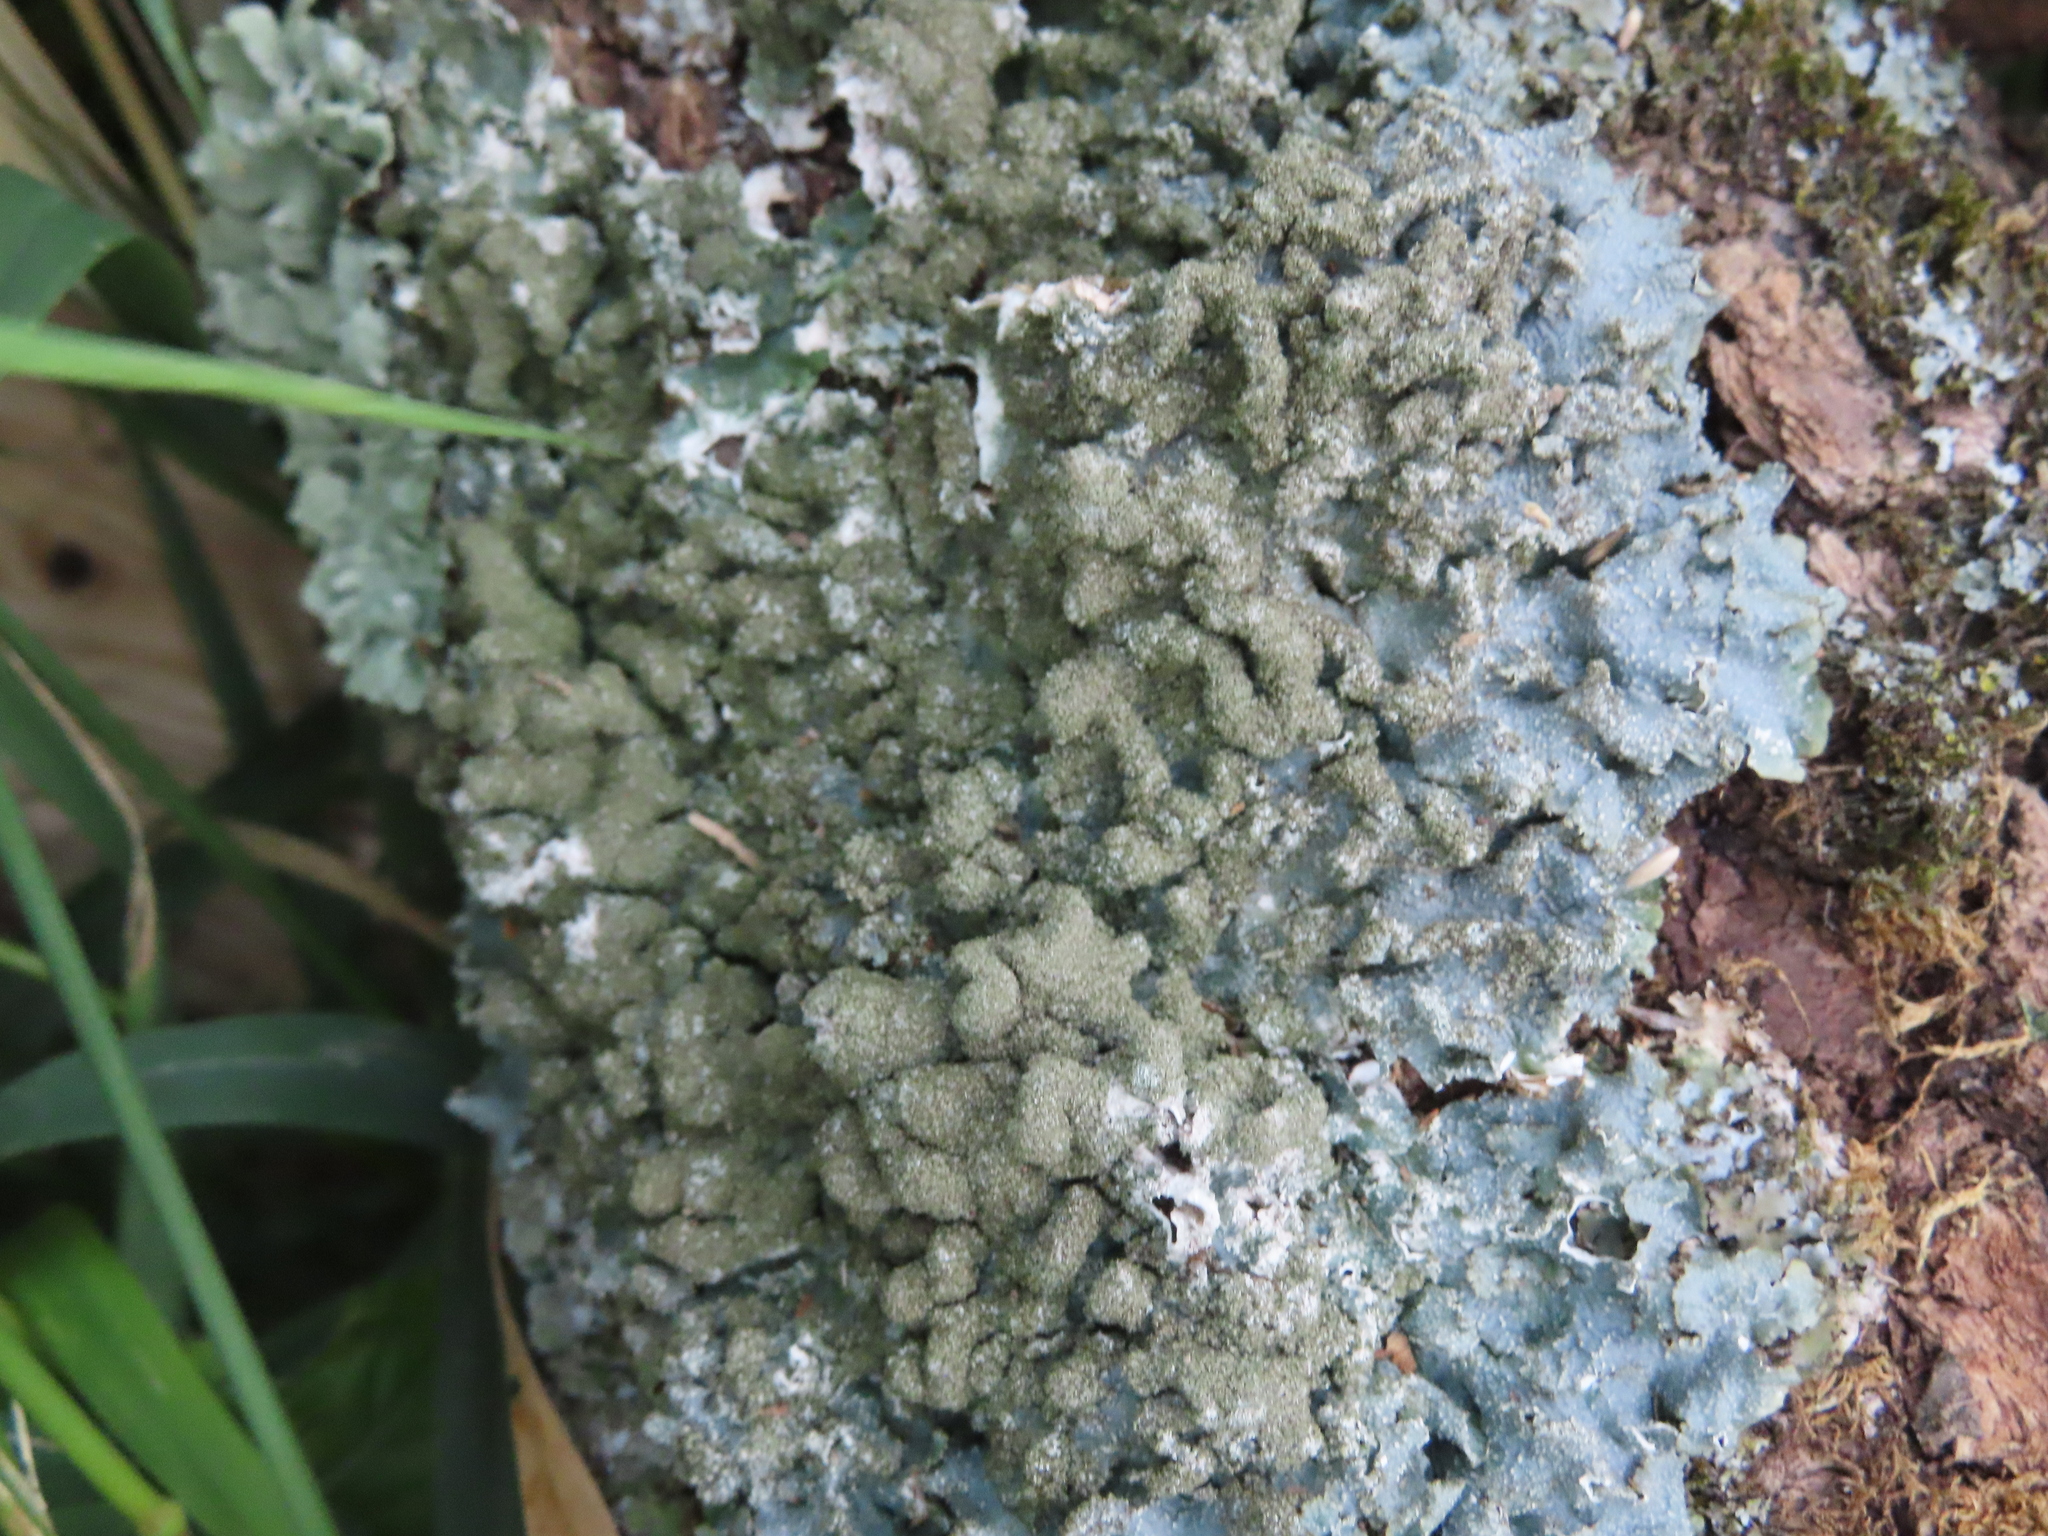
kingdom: Fungi
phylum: Ascomycota
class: Lecanoromycetes
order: Lecanorales
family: Parmeliaceae
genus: Punctelia
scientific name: Punctelia rudecta
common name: Rough speckled shield lichen
